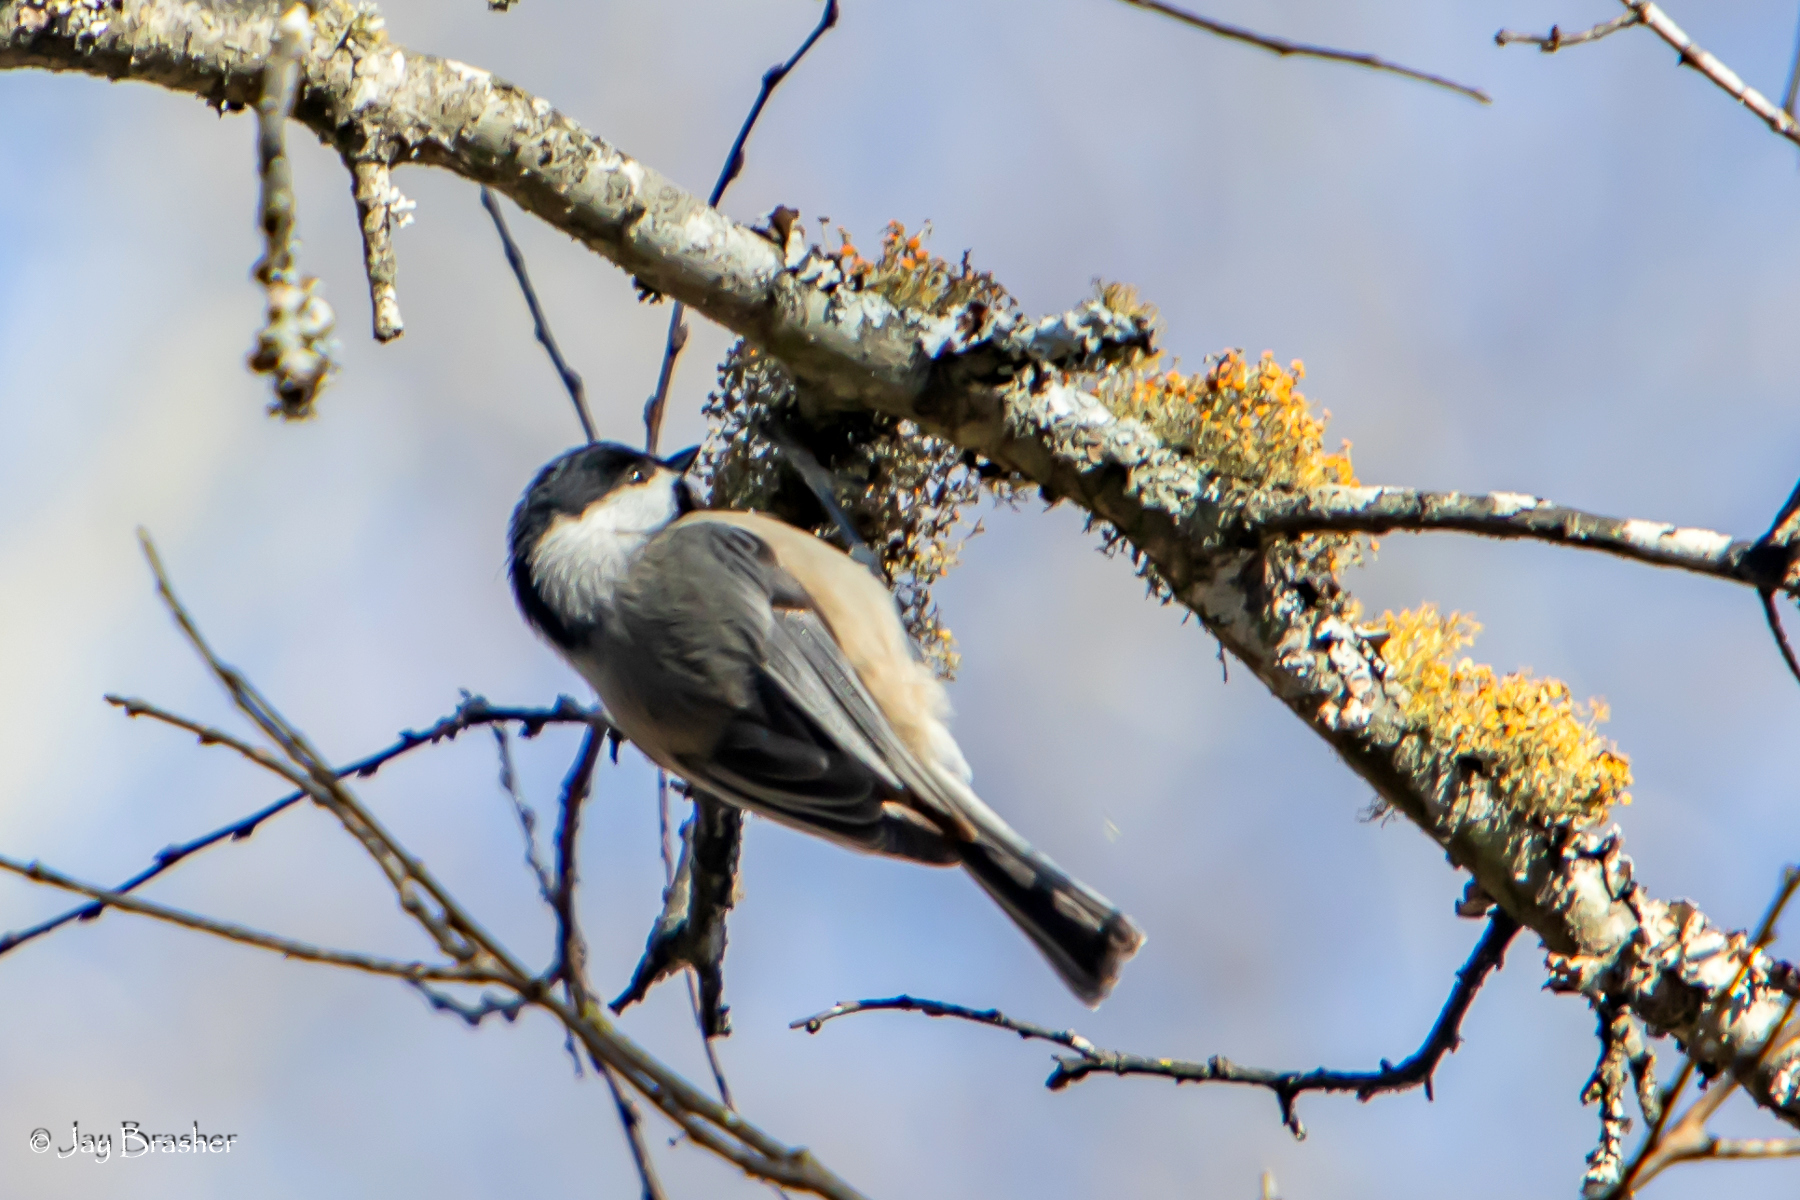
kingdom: Animalia
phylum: Chordata
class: Aves
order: Passeriformes
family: Paridae
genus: Poecile
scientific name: Poecile carolinensis
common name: Carolina chickadee
